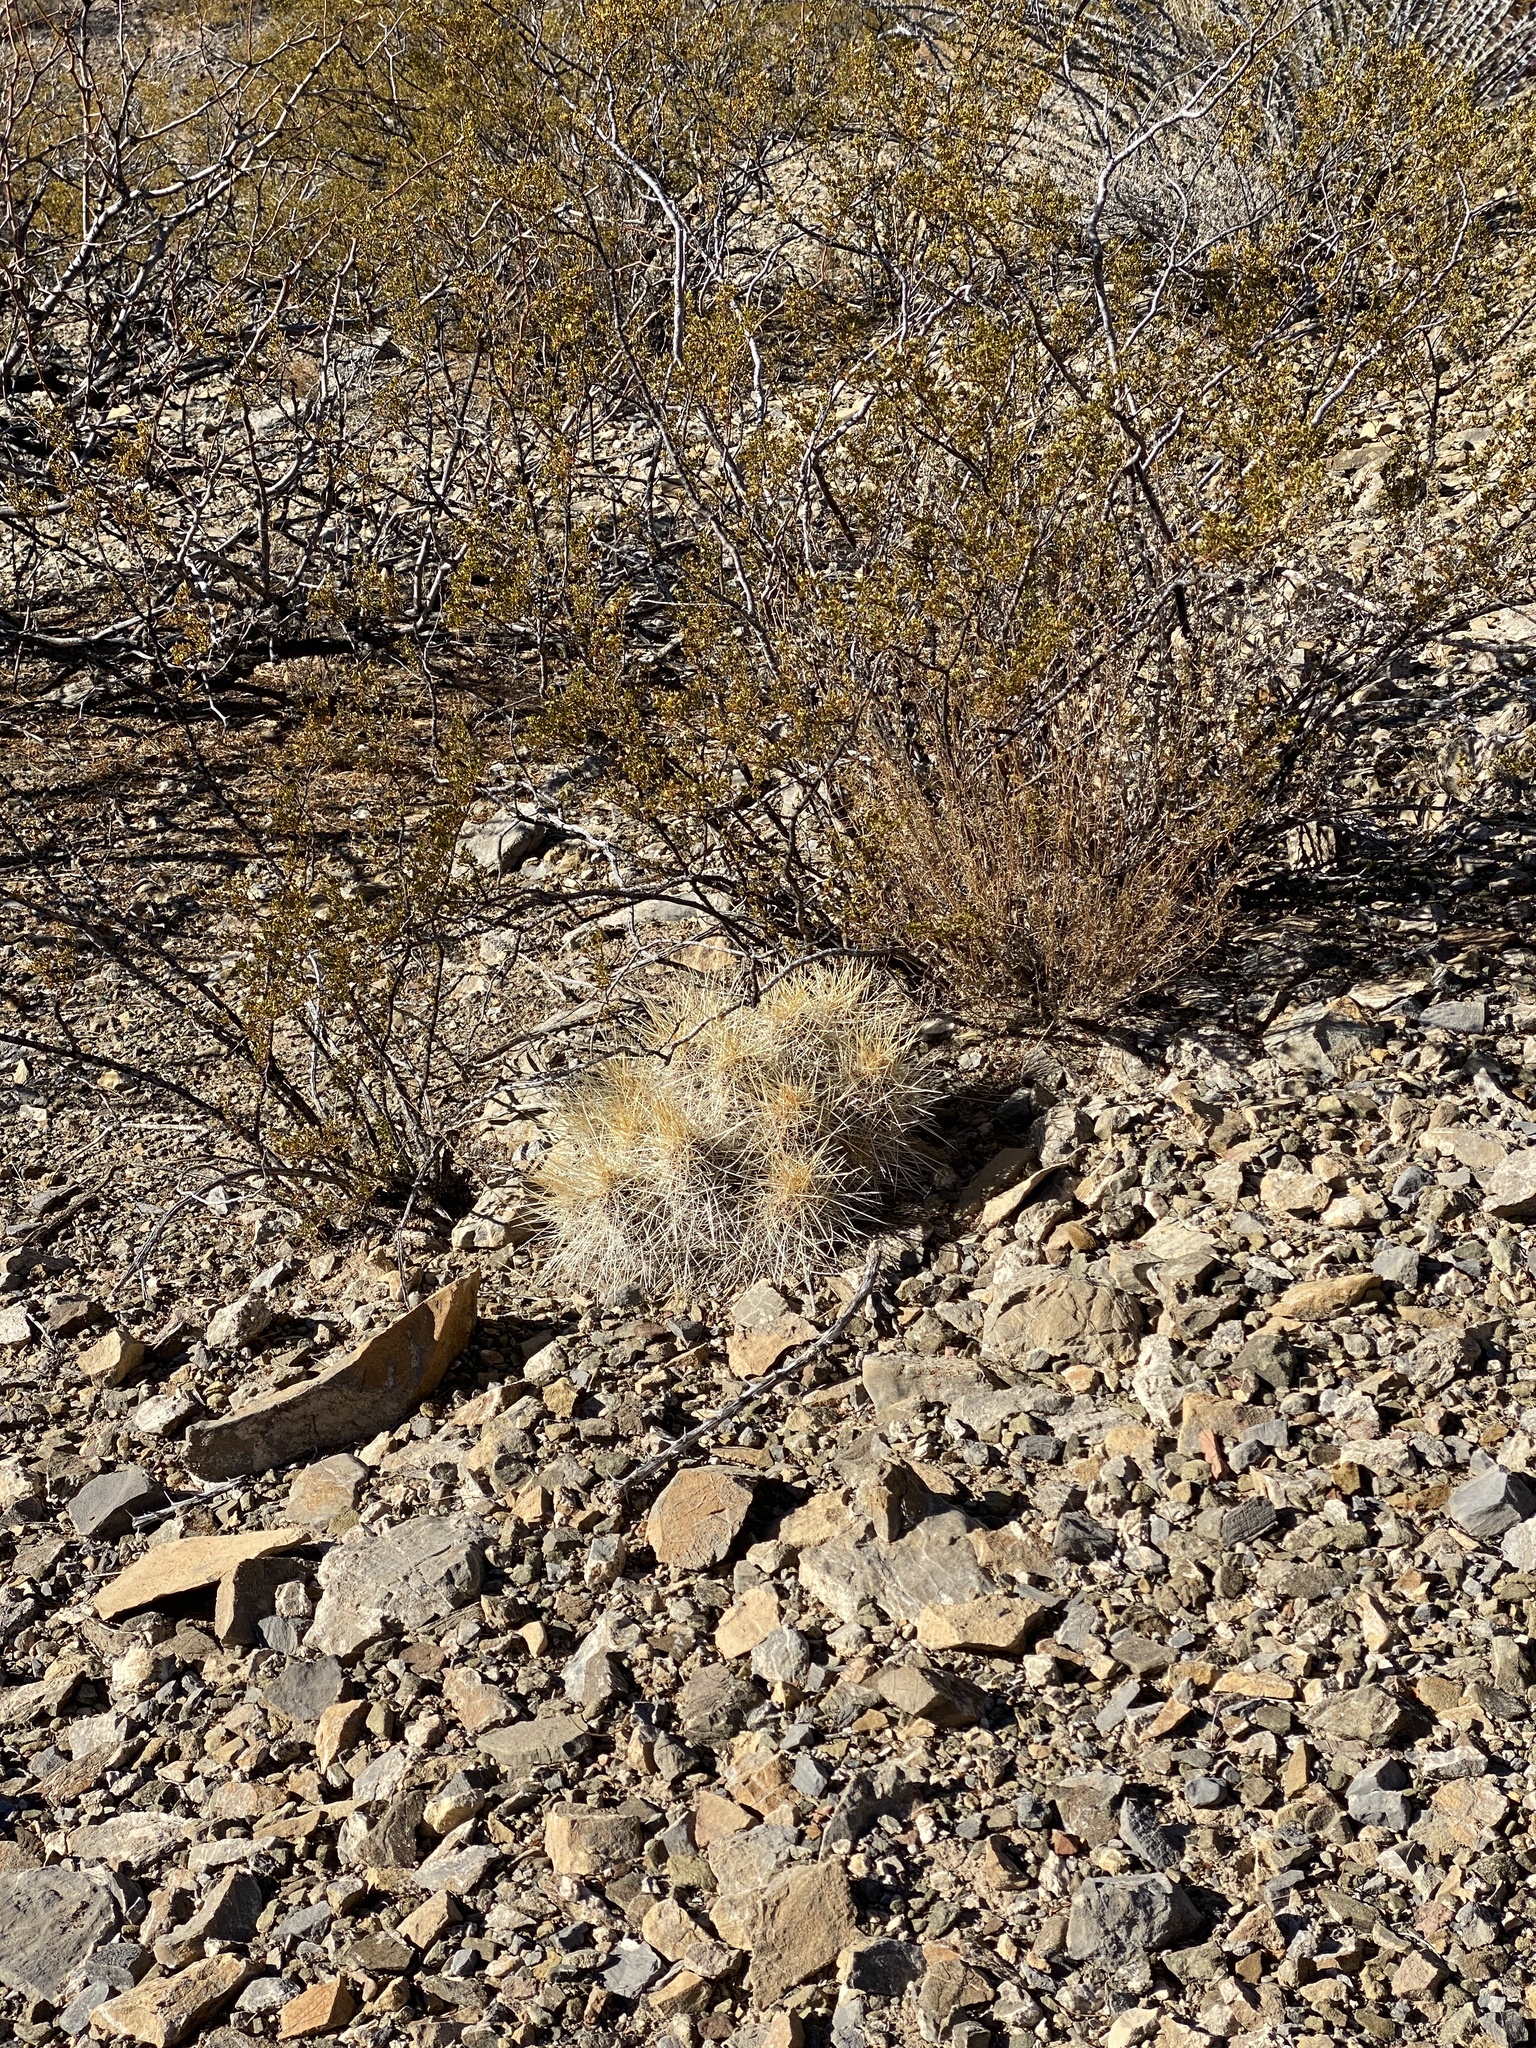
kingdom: Plantae
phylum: Tracheophyta
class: Magnoliopsida
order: Caryophyllales
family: Cactaceae
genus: Echinocereus
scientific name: Echinocereus stramineus
